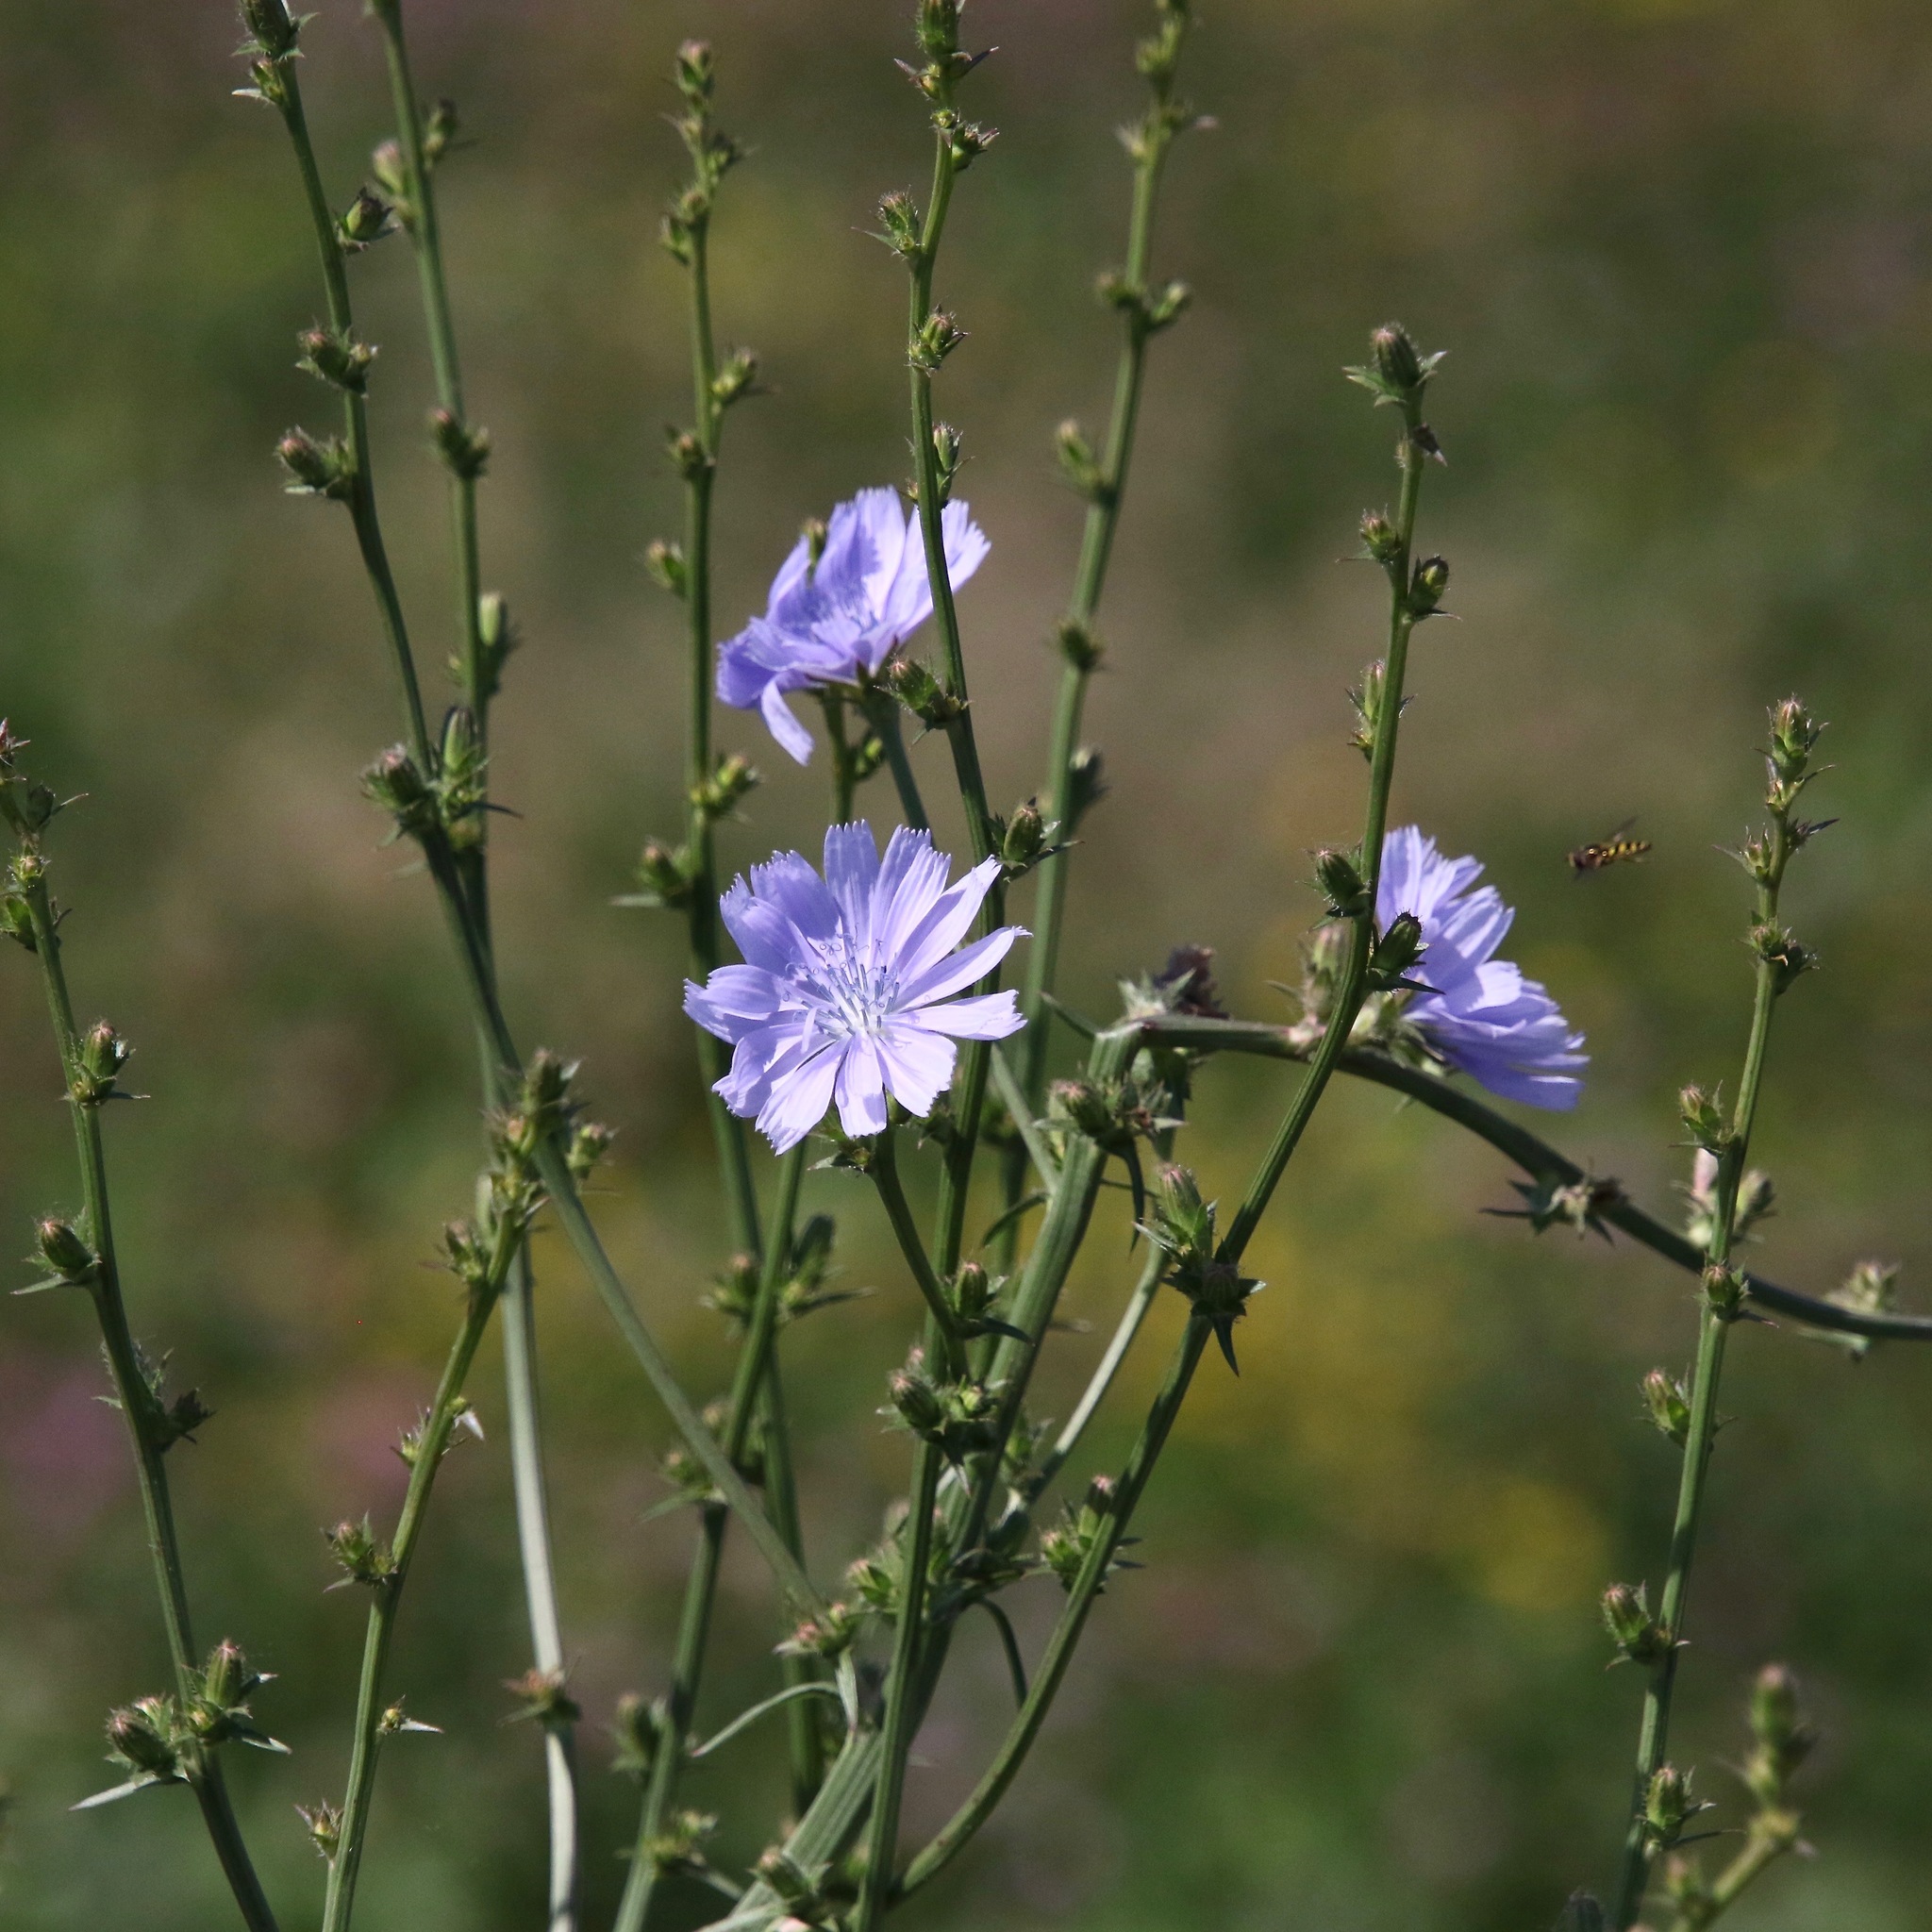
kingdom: Plantae
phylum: Tracheophyta
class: Magnoliopsida
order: Asterales
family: Asteraceae
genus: Cichorium
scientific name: Cichorium intybus
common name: Chicory
